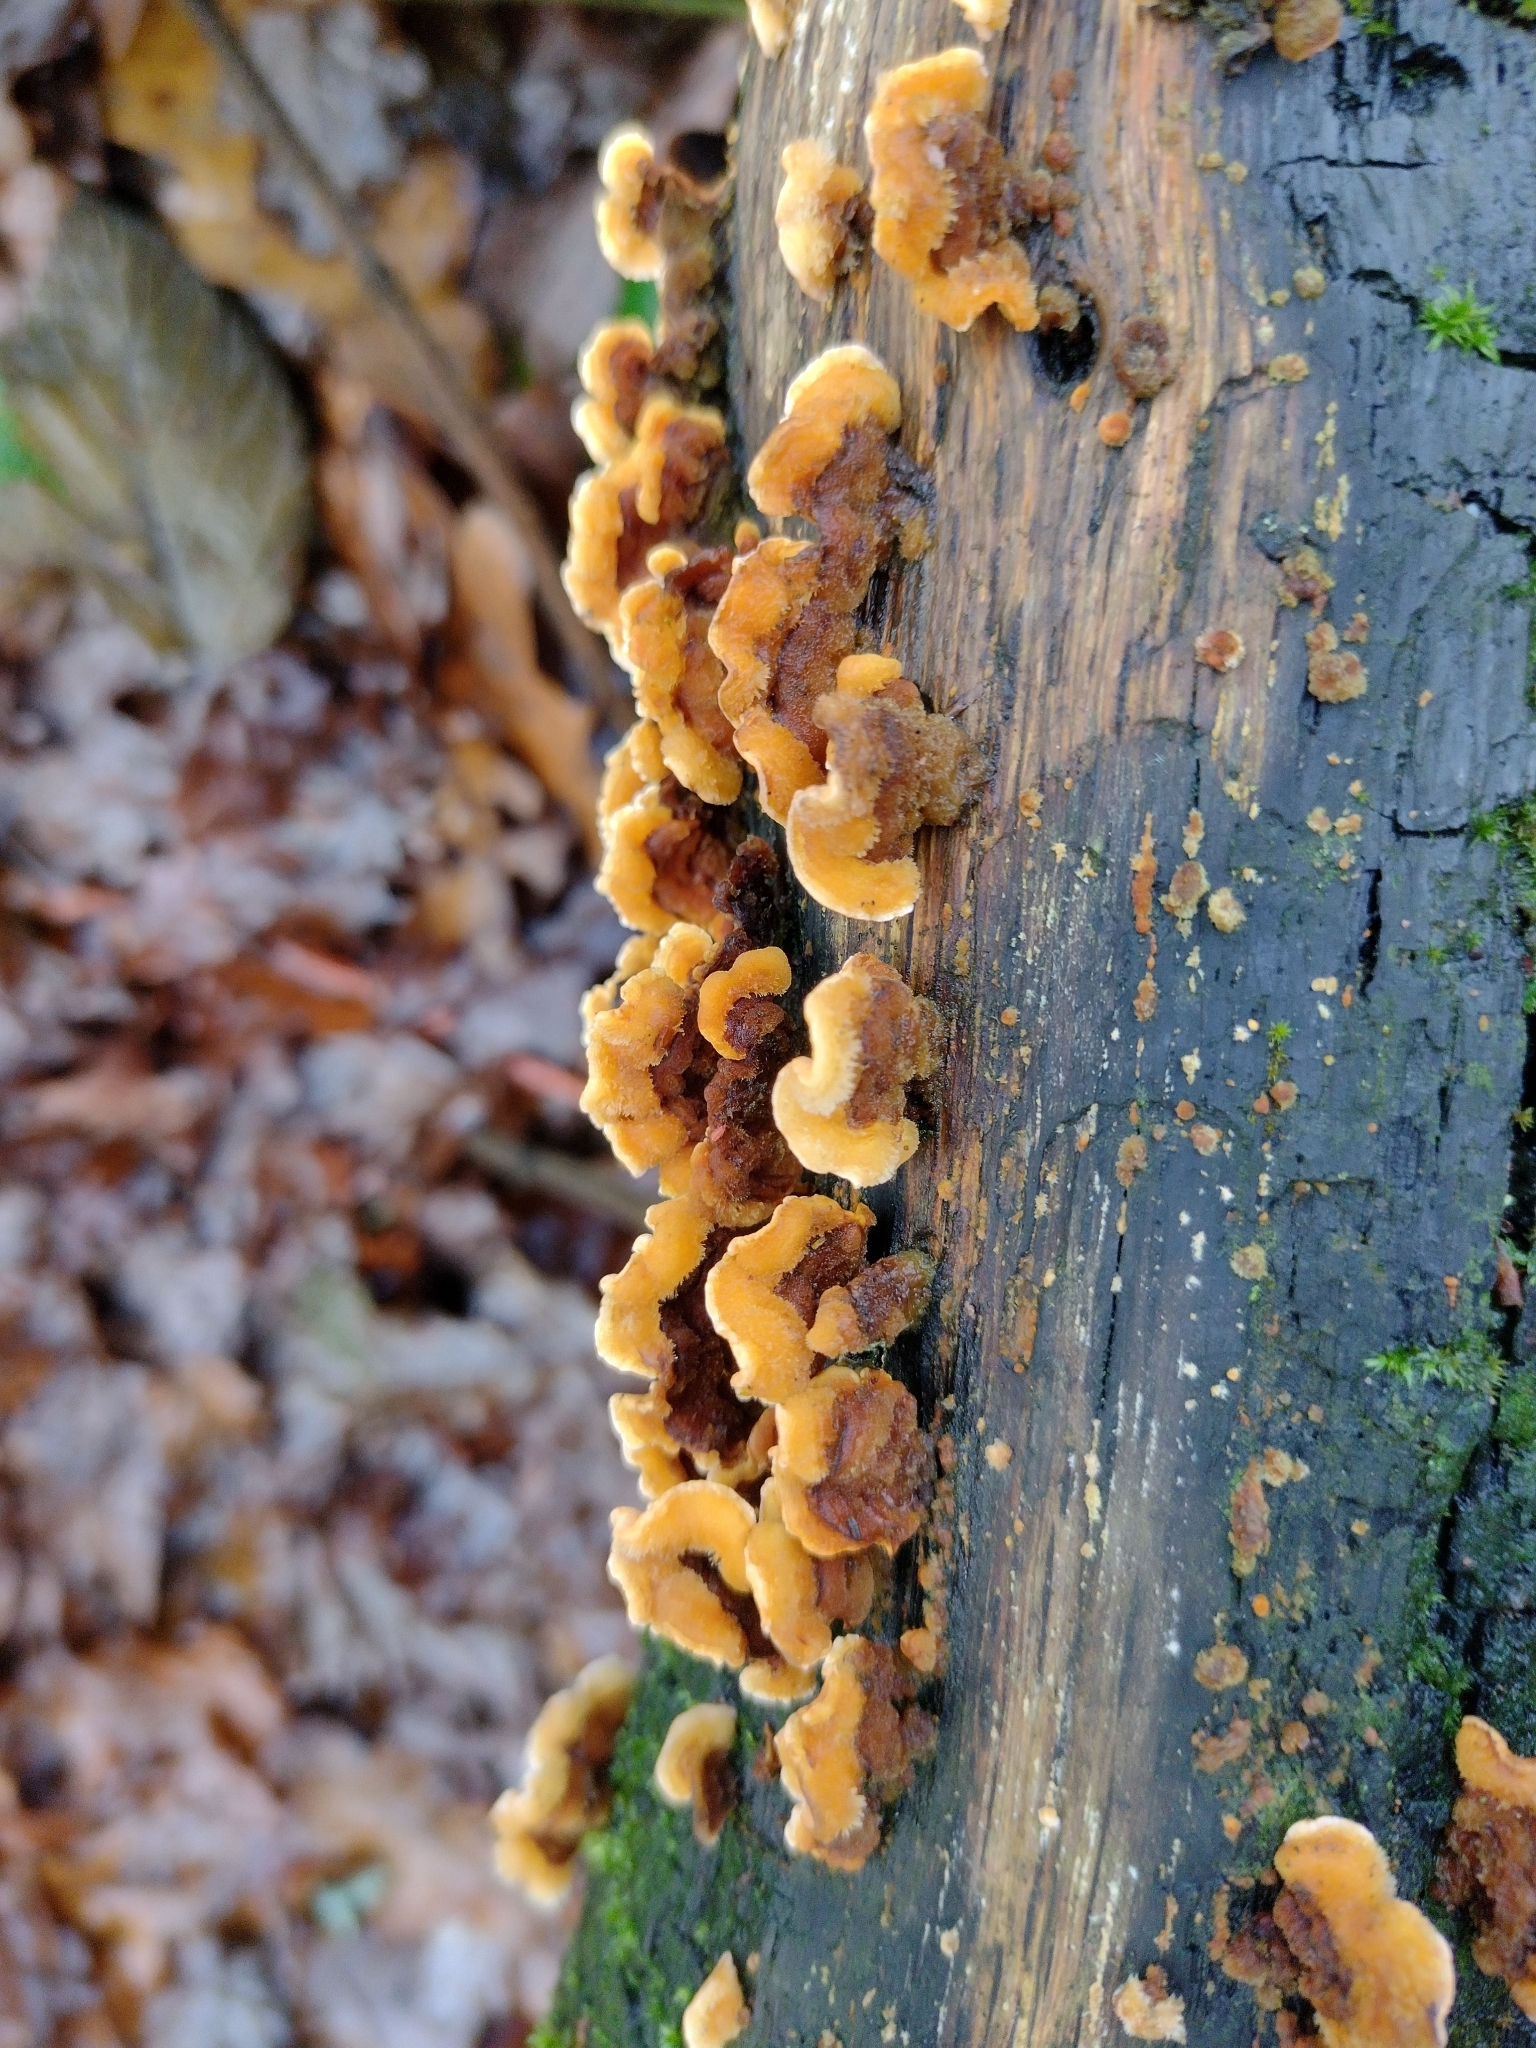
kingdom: Fungi
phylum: Basidiomycota
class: Agaricomycetes
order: Russulales
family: Stereaceae
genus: Stereum
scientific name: Stereum hirsutum
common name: Hairy curtain crust
